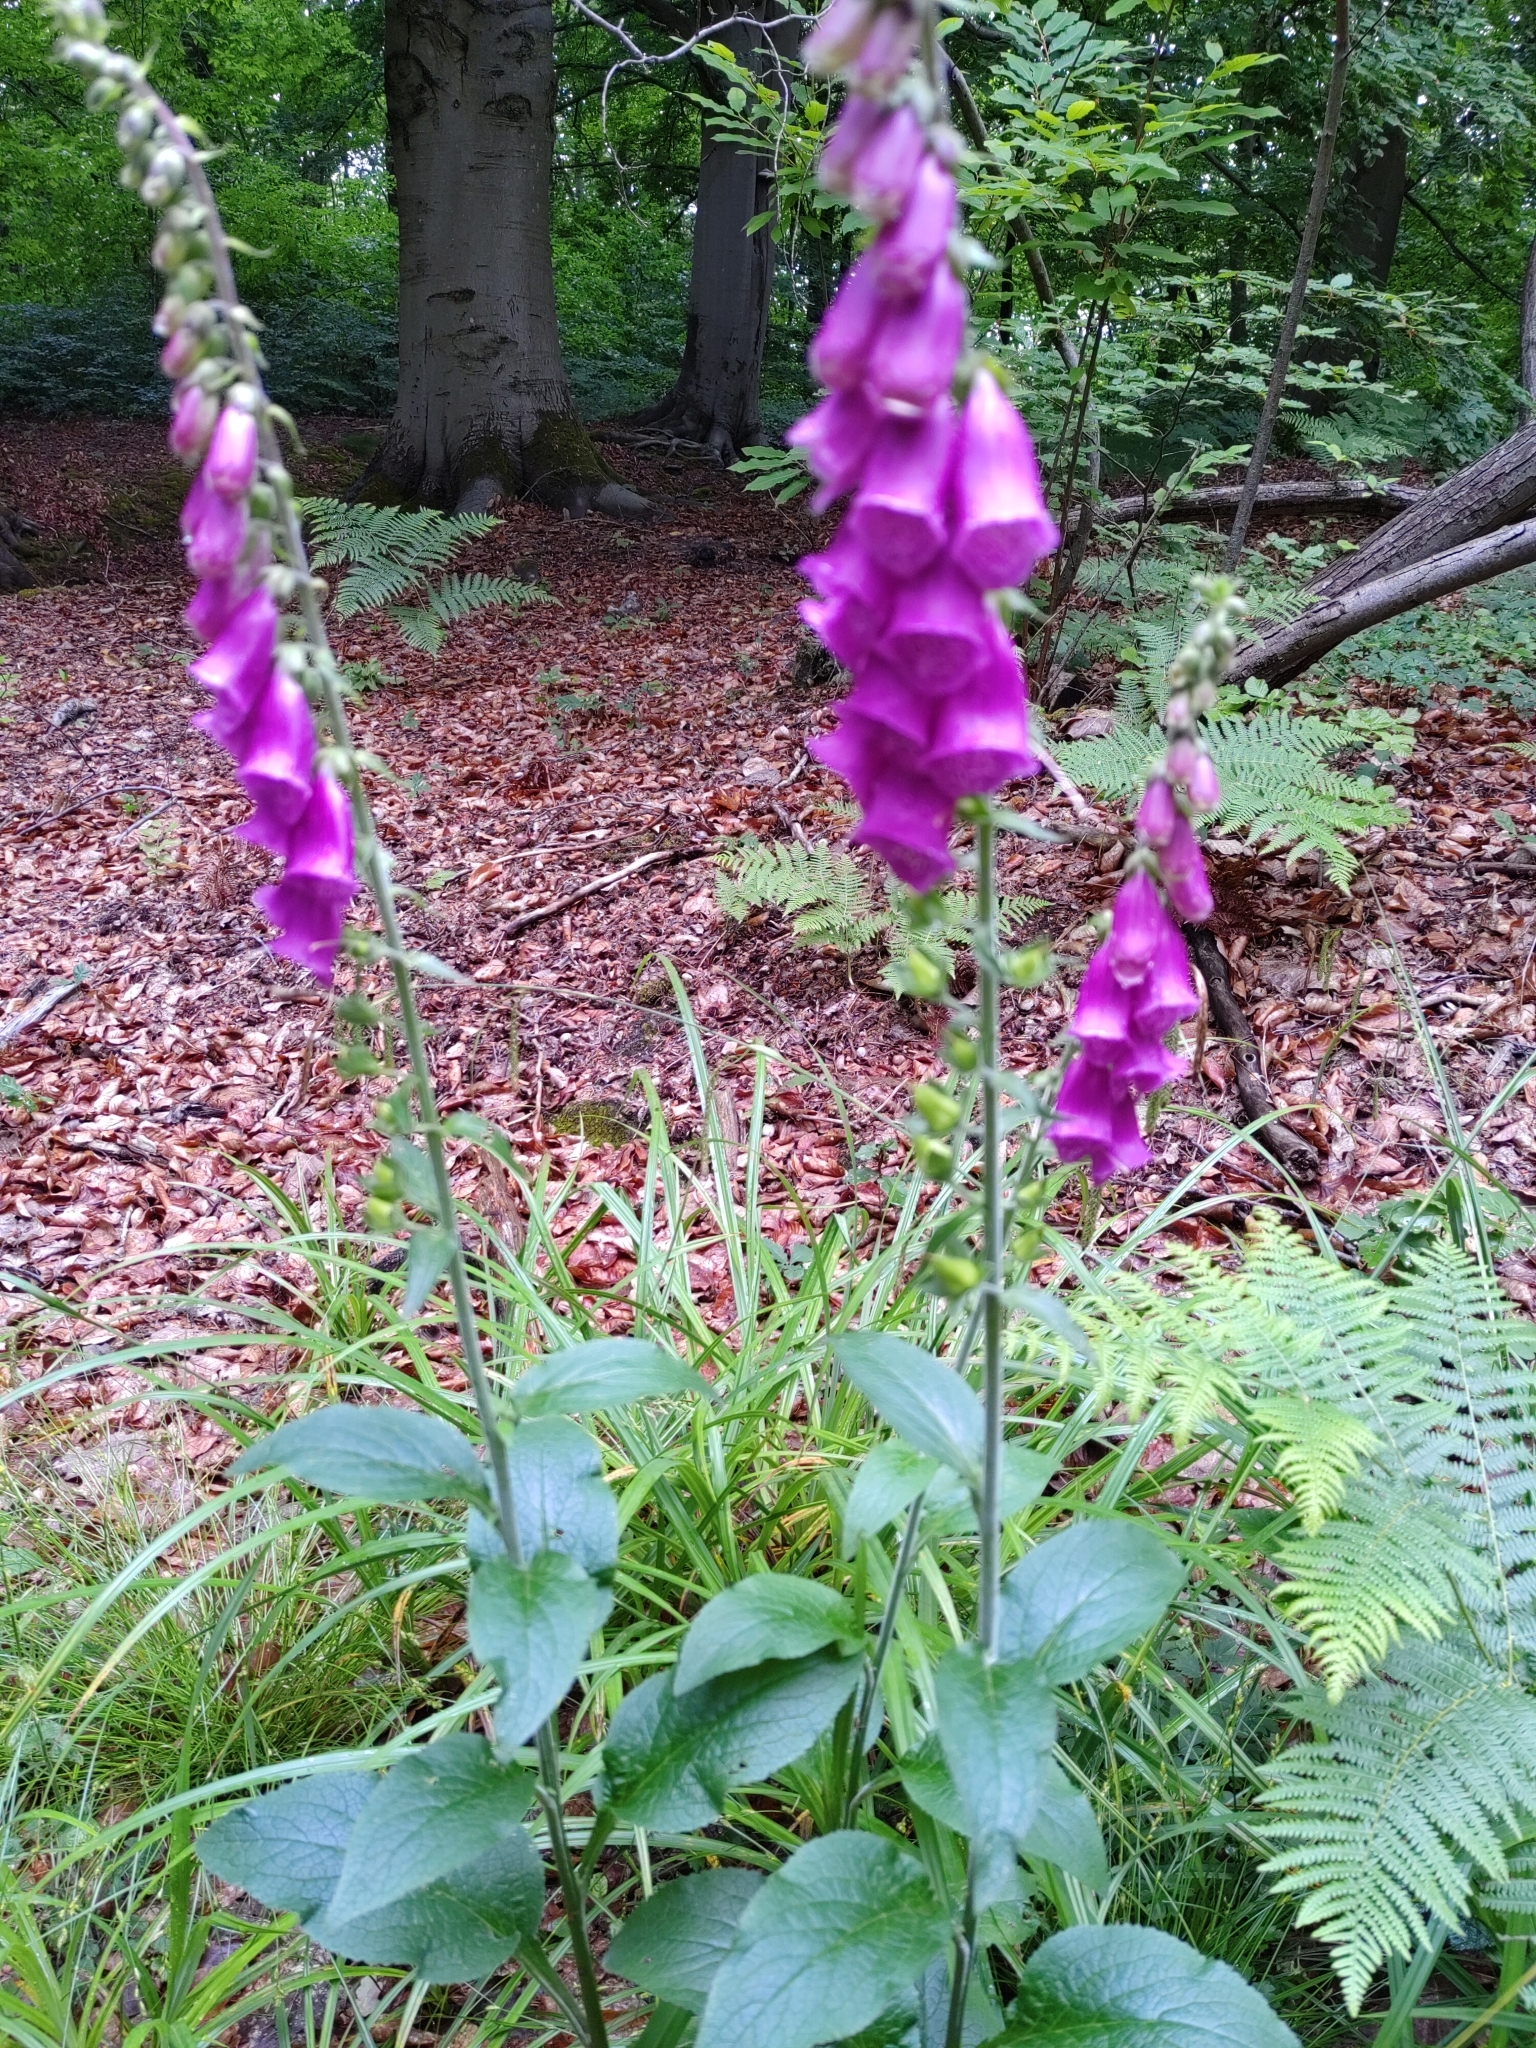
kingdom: Plantae
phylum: Tracheophyta
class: Magnoliopsida
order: Lamiales
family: Plantaginaceae
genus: Digitalis
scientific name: Digitalis purpurea
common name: Foxglove
